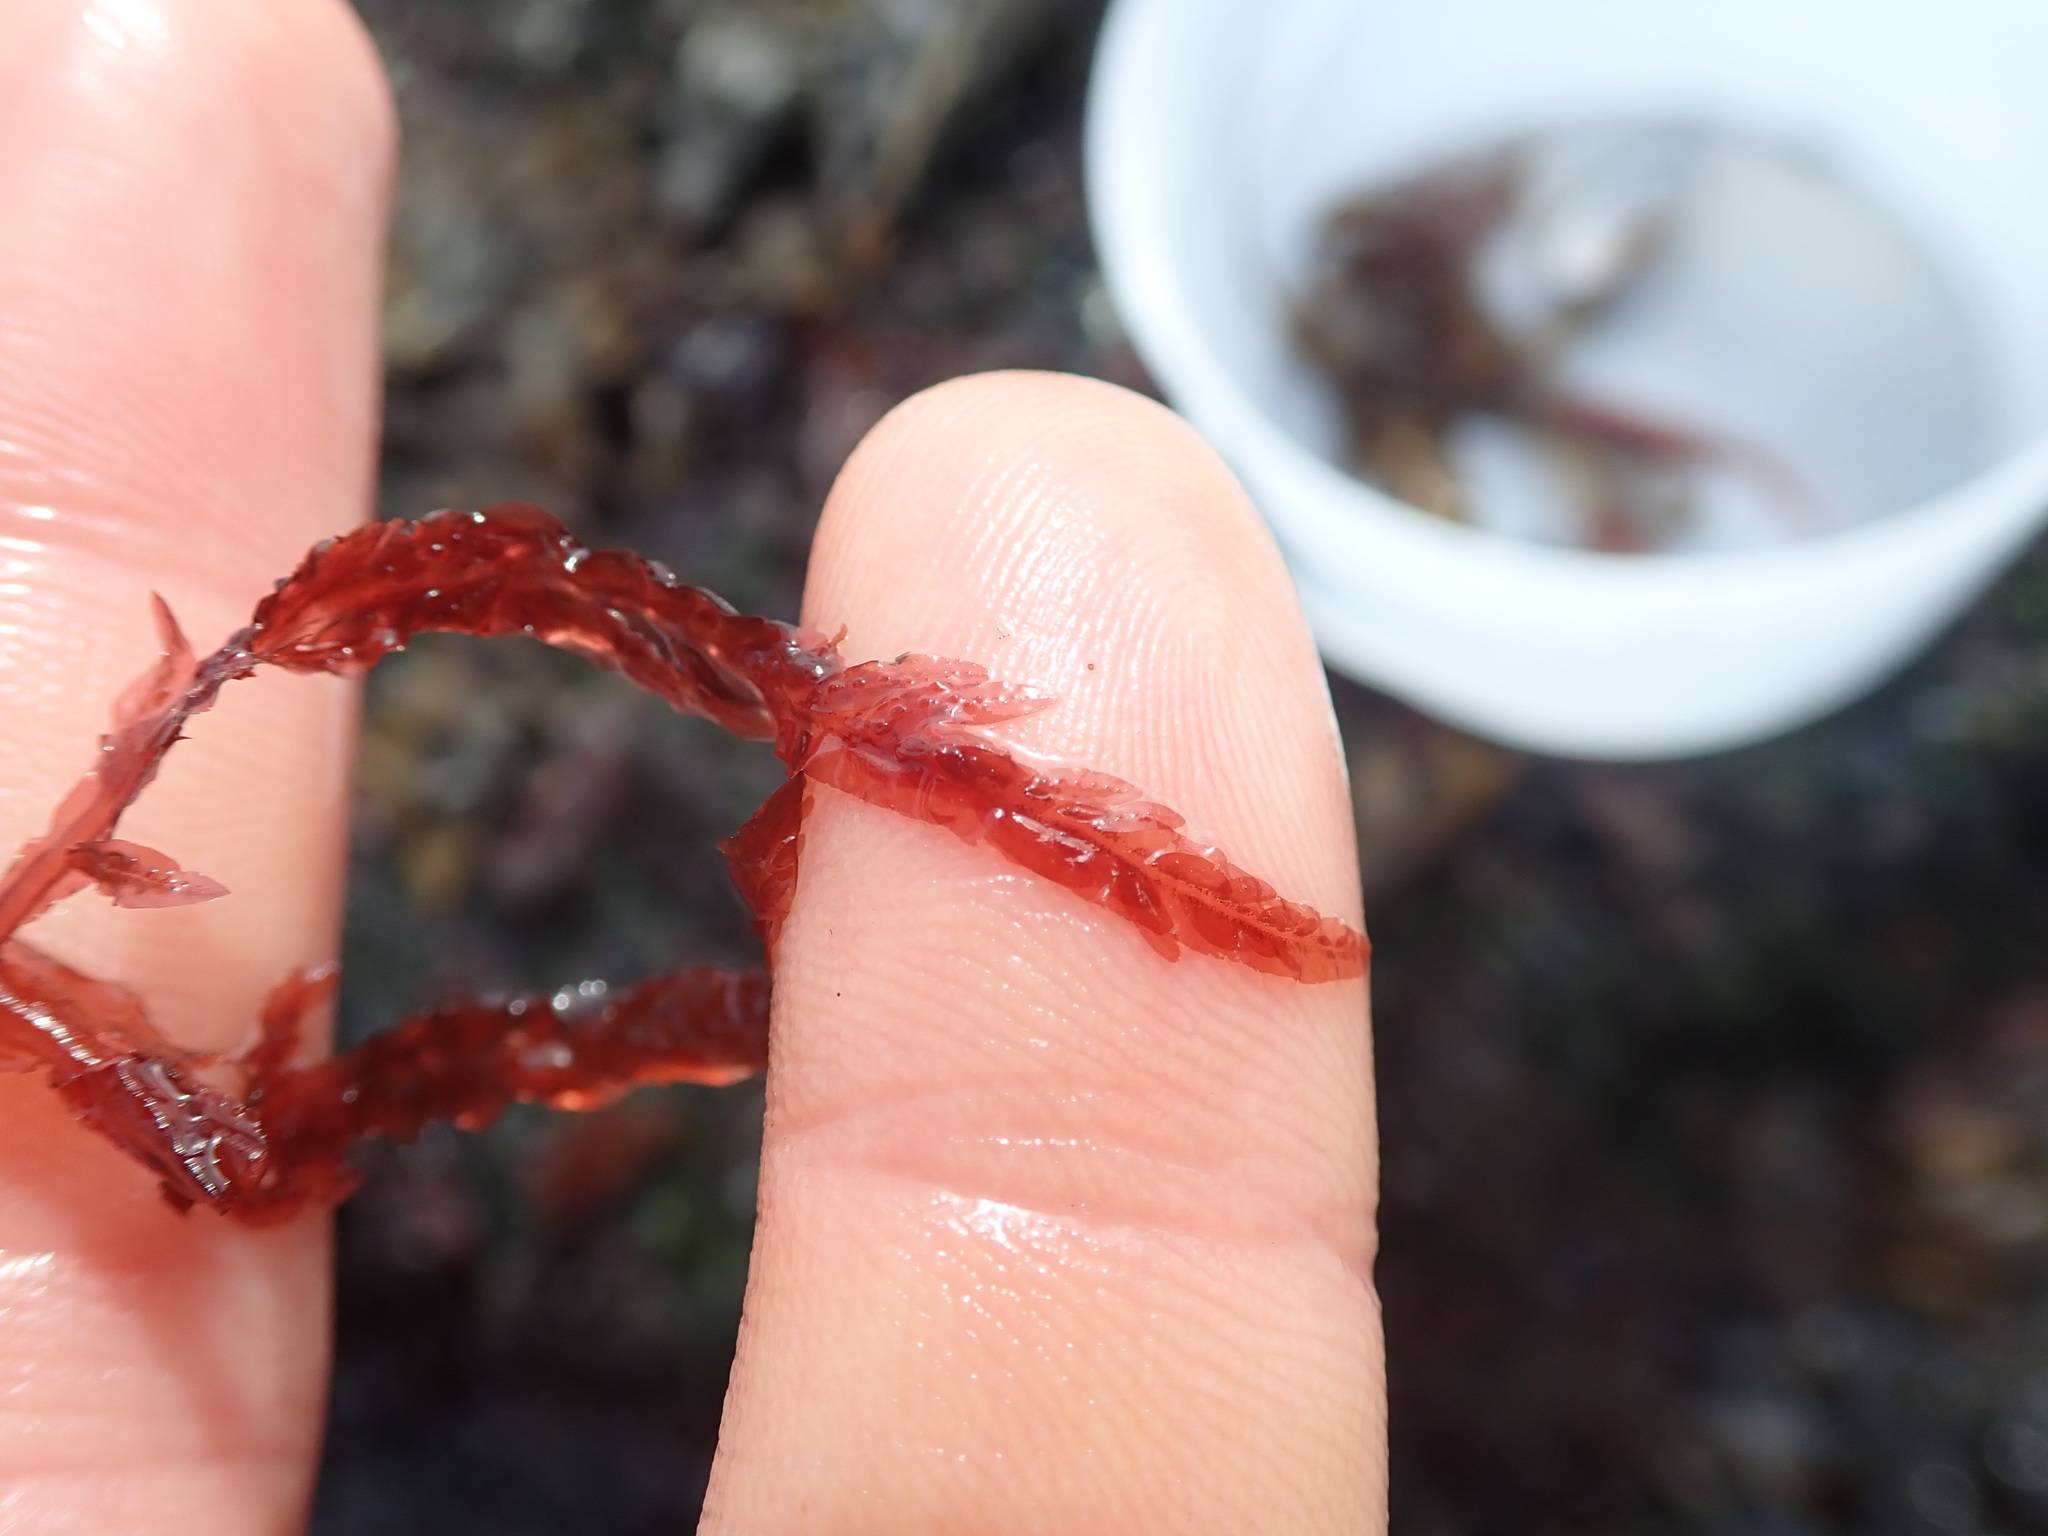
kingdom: Plantae
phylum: Rhodophyta
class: Florideophyceae
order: Ceramiales
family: Delesseriaceae
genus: Cumathamnion
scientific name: Cumathamnion decipiens
